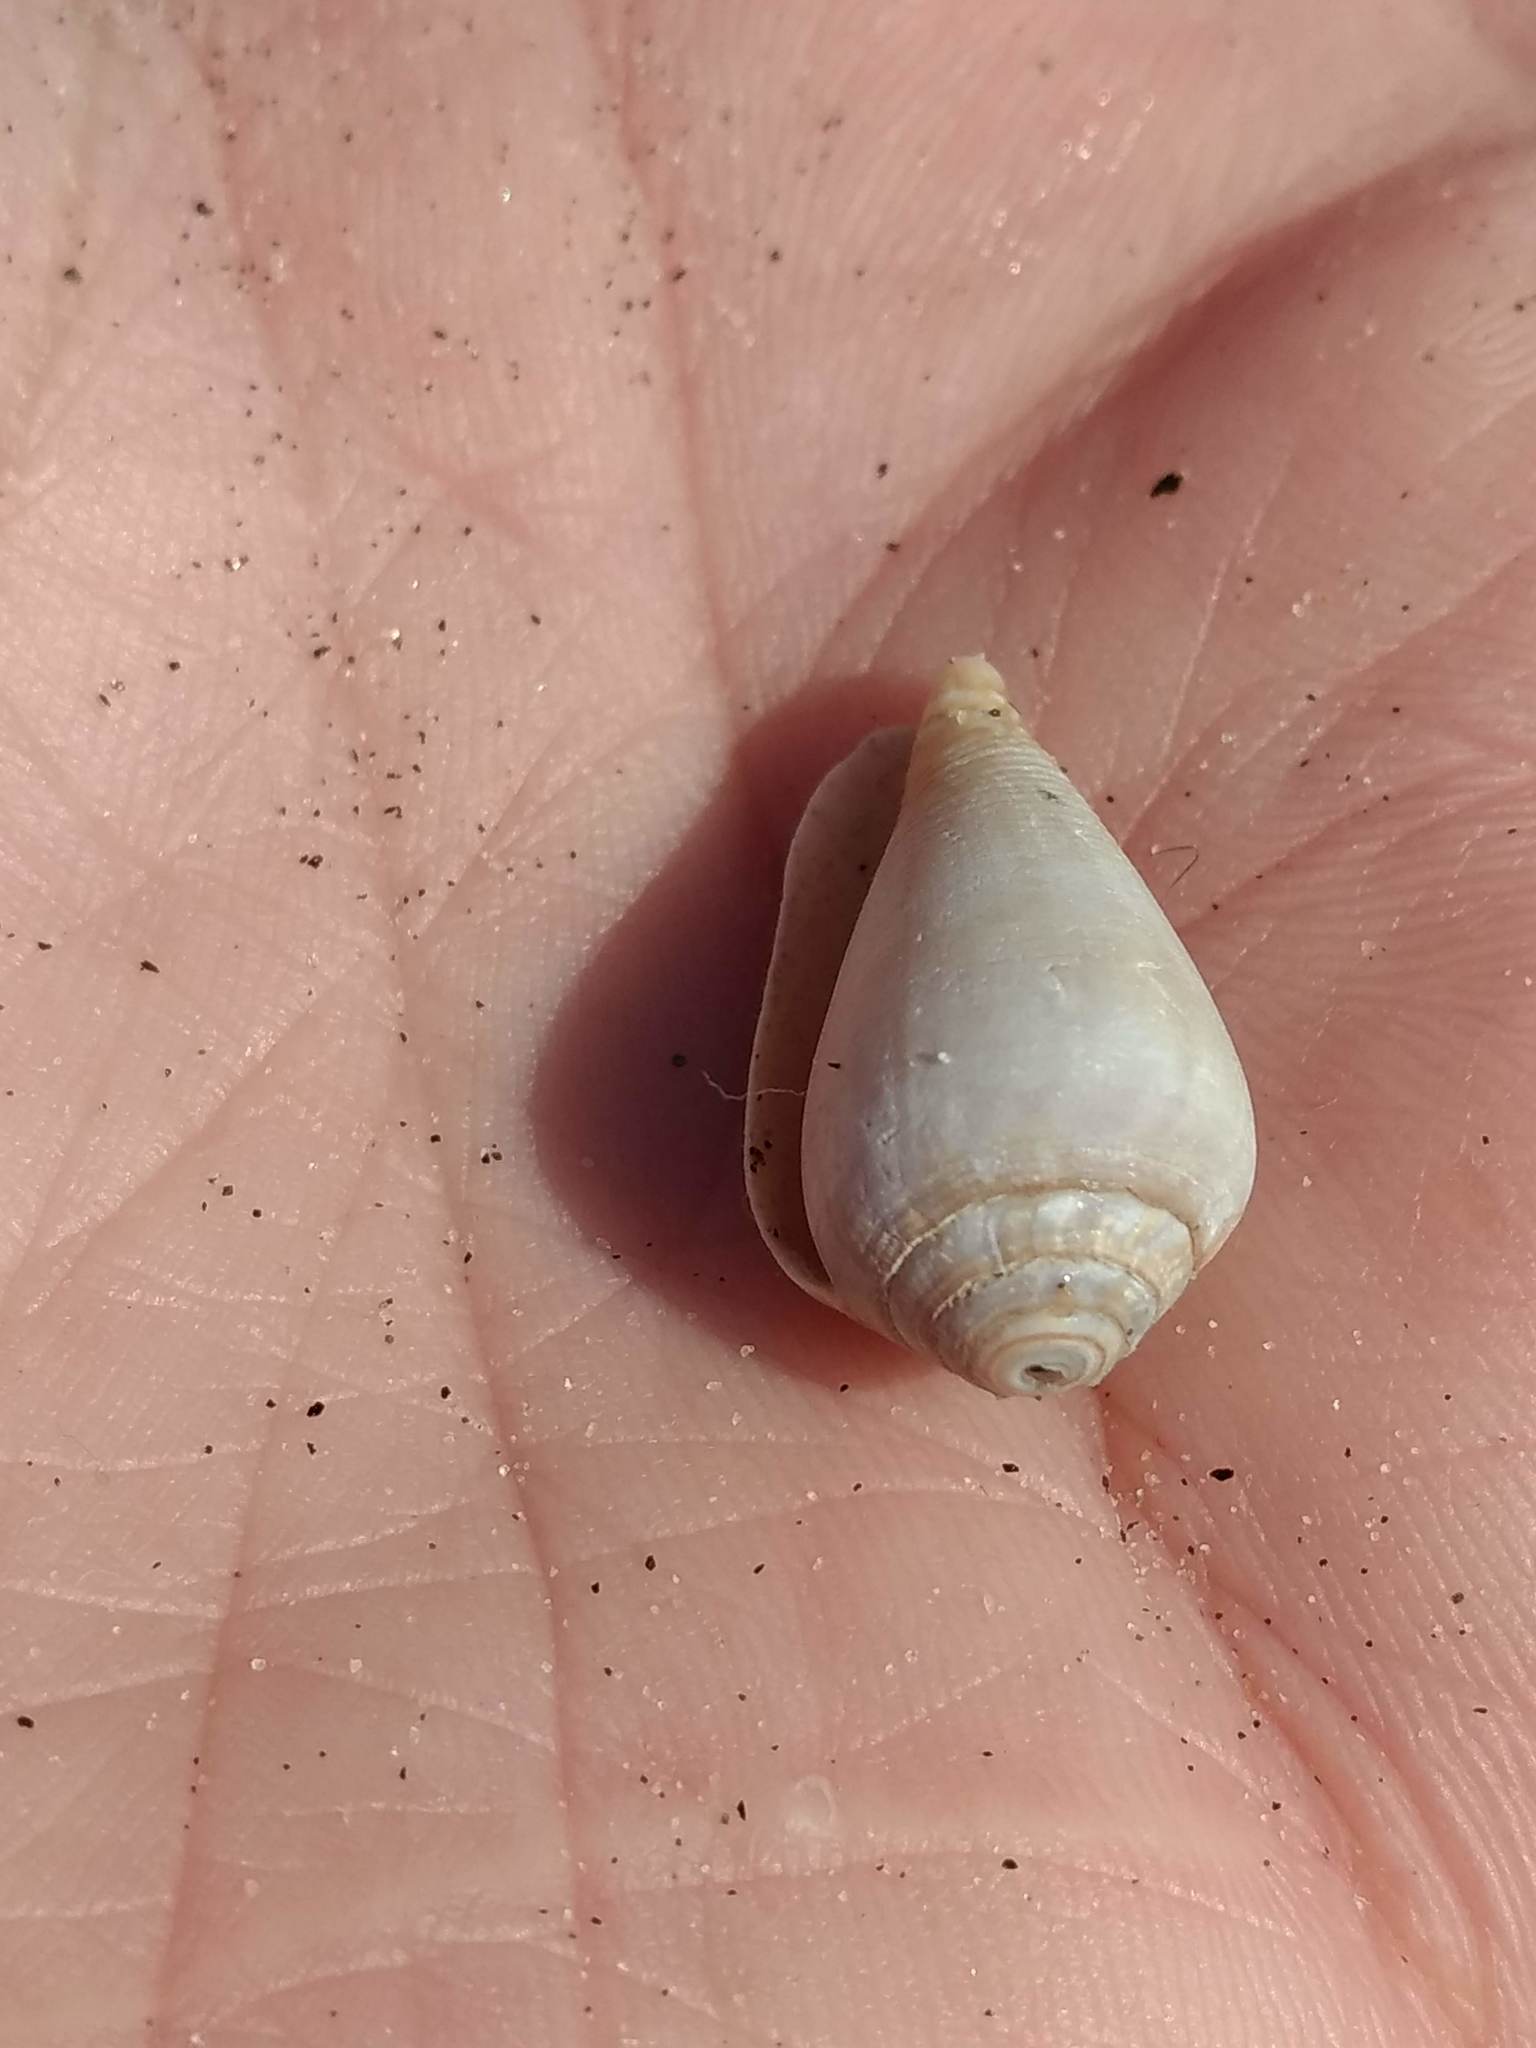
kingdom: Animalia
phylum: Mollusca
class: Gastropoda
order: Neogastropoda
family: Conidae
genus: Californiconus
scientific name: Californiconus californicus
